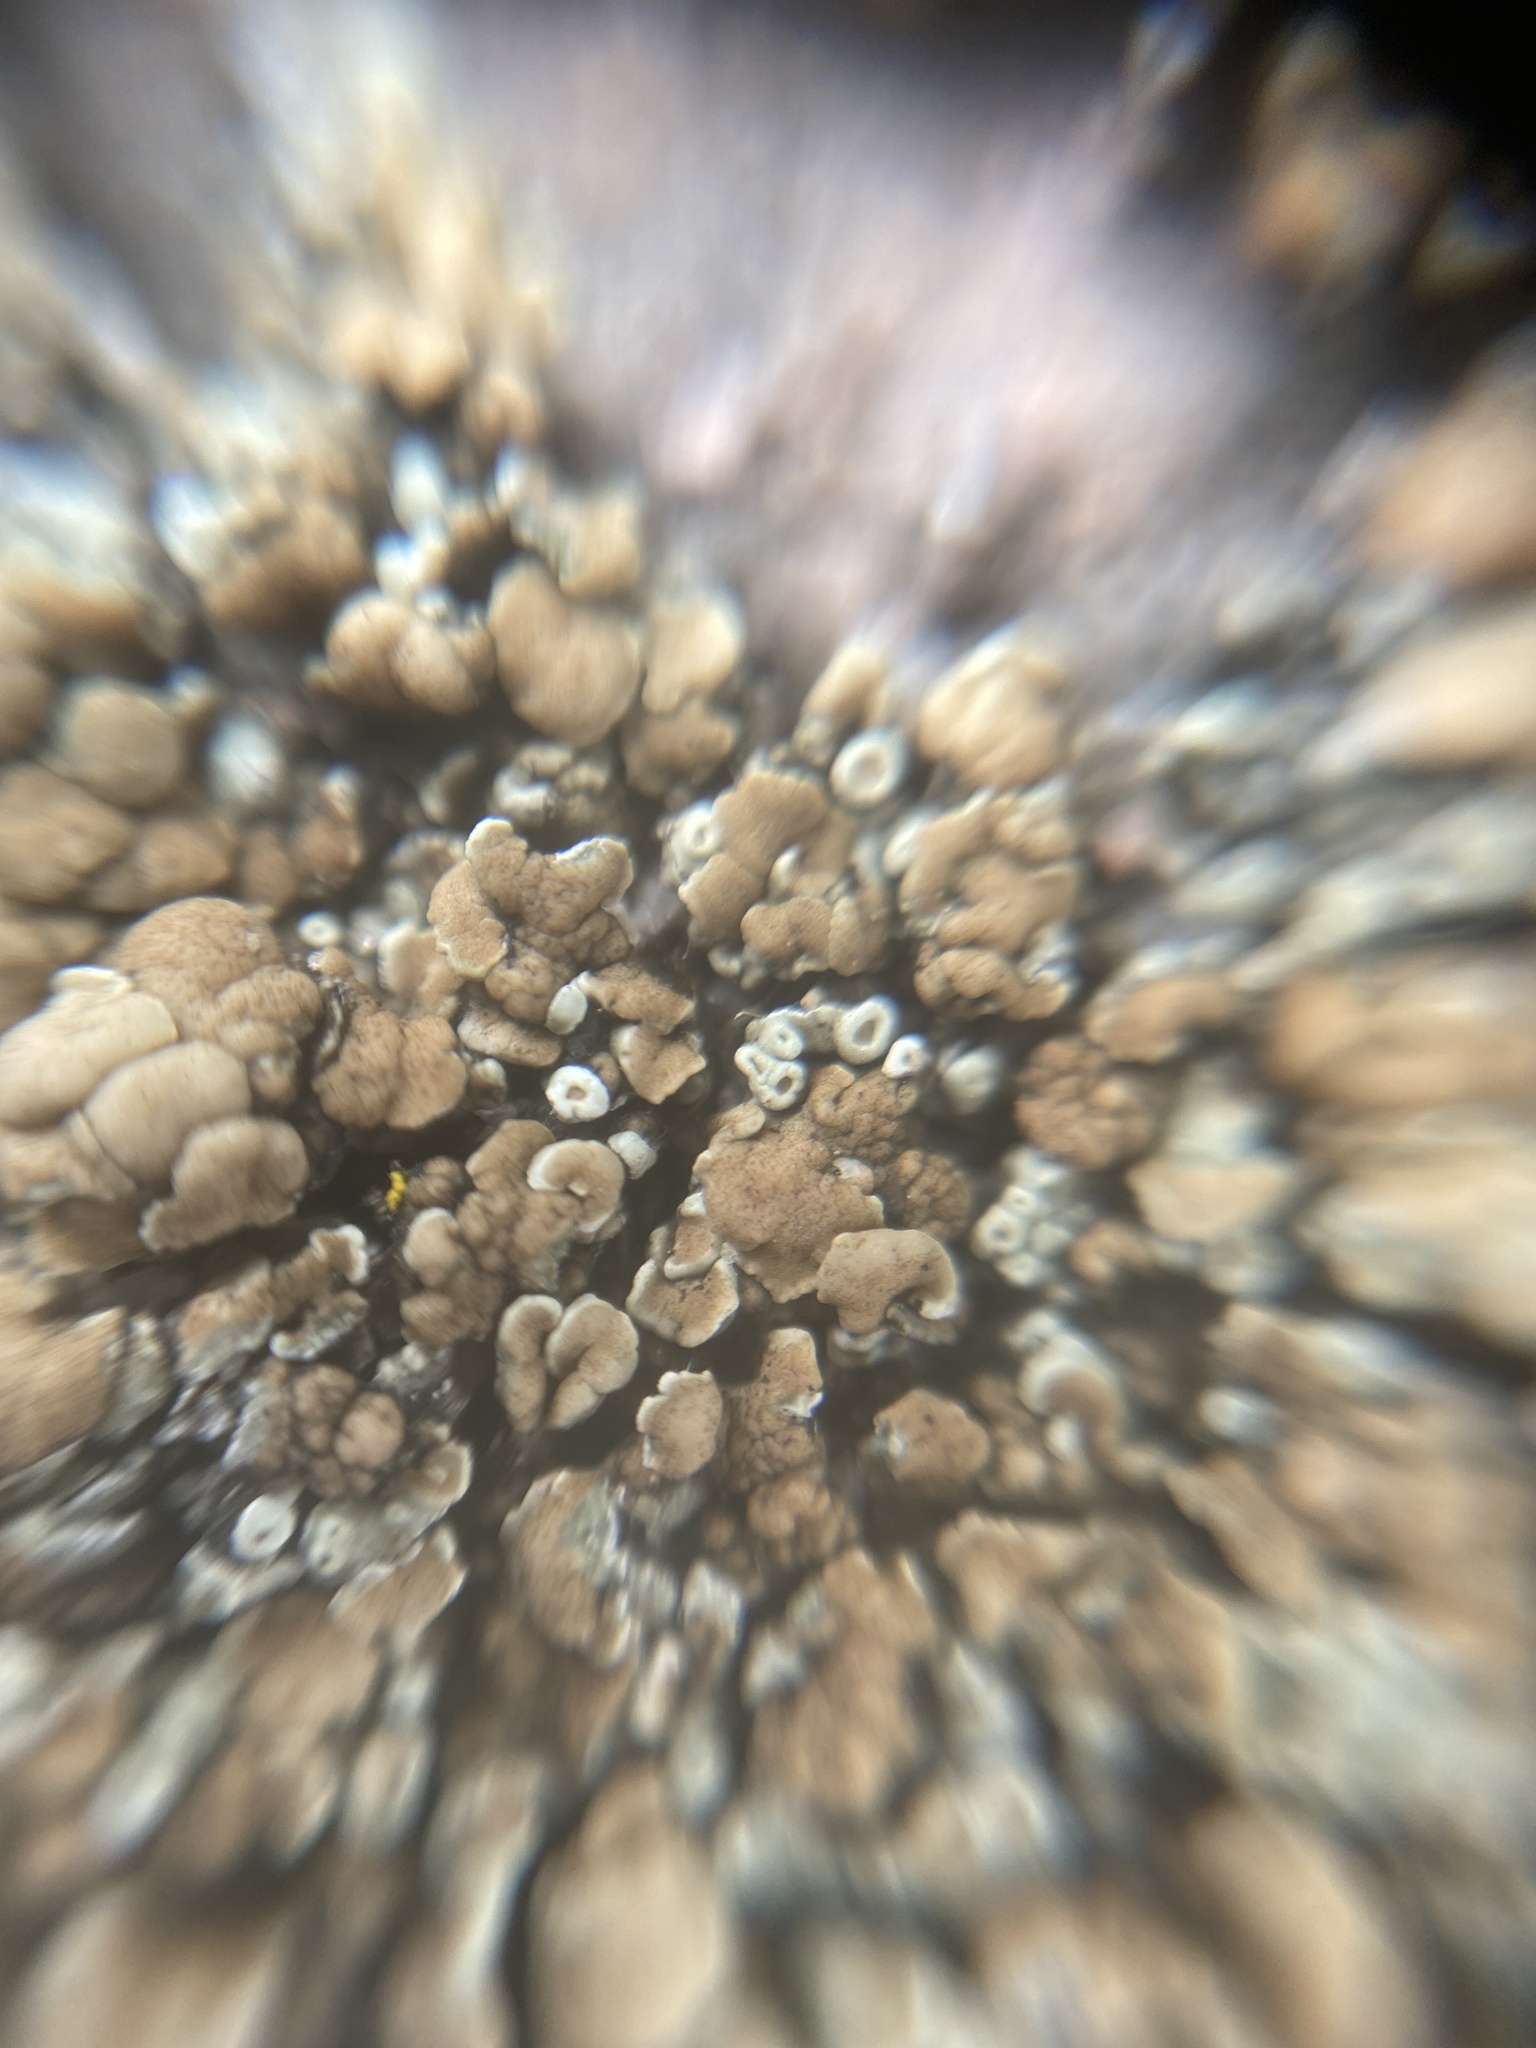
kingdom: Fungi
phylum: Ascomycota
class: Lecanoromycetes
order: Lecanorales
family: Lecanoraceae
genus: Protoparmeliopsis
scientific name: Protoparmeliopsis muralis
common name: Stonewall rim lichen
